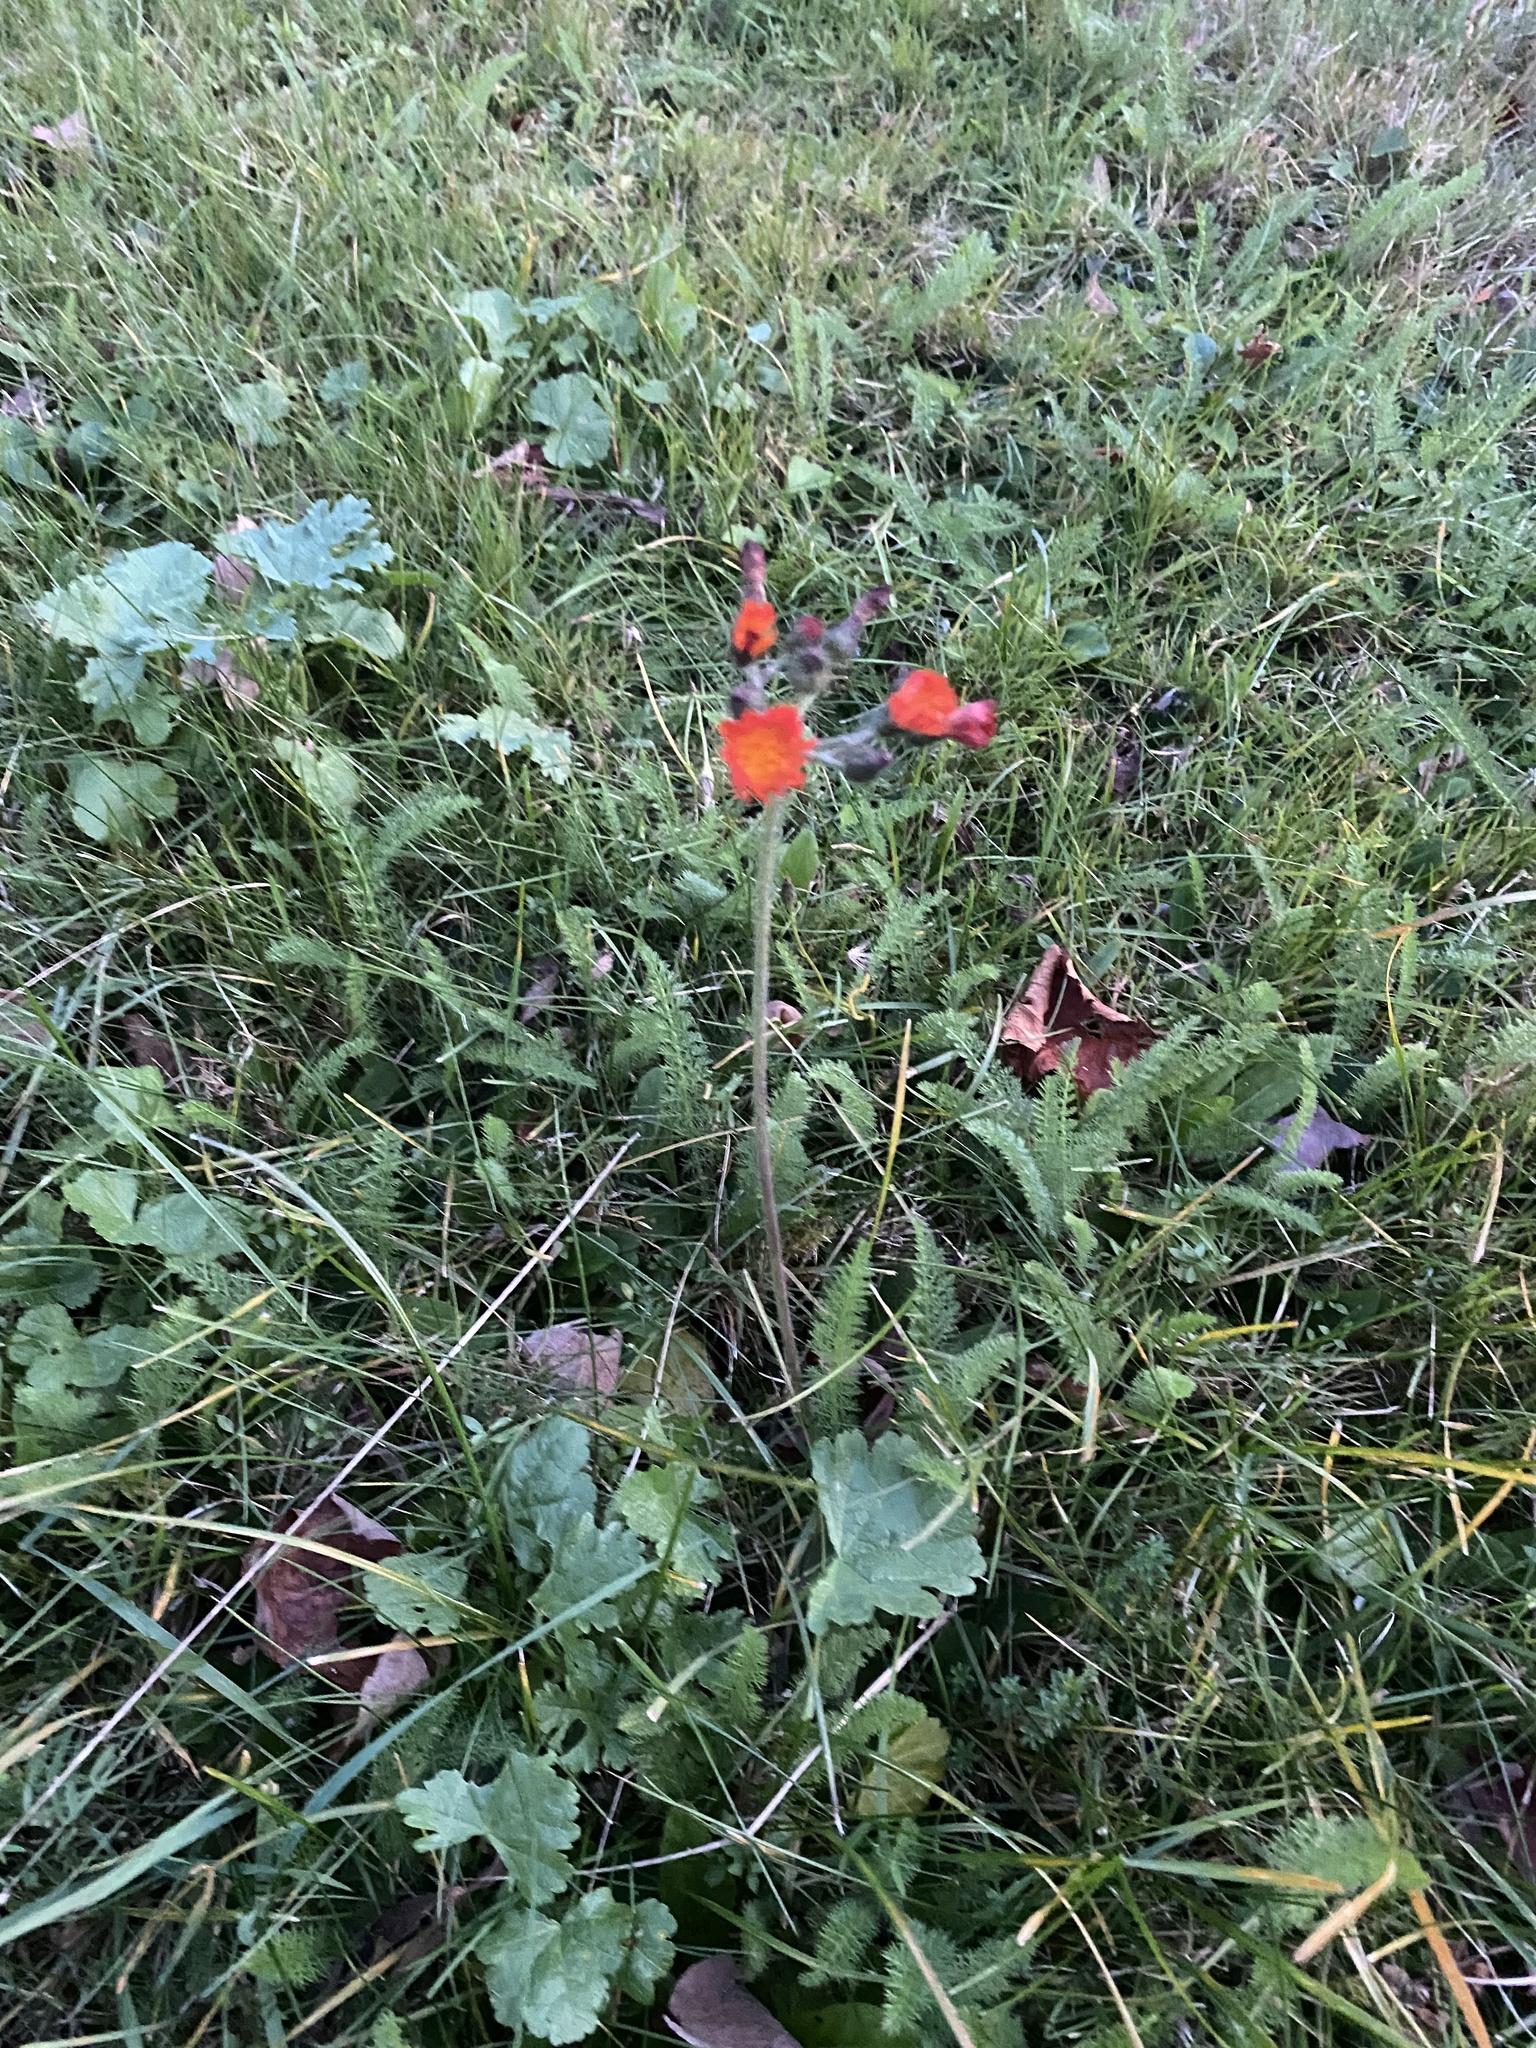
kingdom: Plantae
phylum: Tracheophyta
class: Magnoliopsida
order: Asterales
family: Asteraceae
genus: Pilosella
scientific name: Pilosella aurantiaca
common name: Fox-and-cubs
